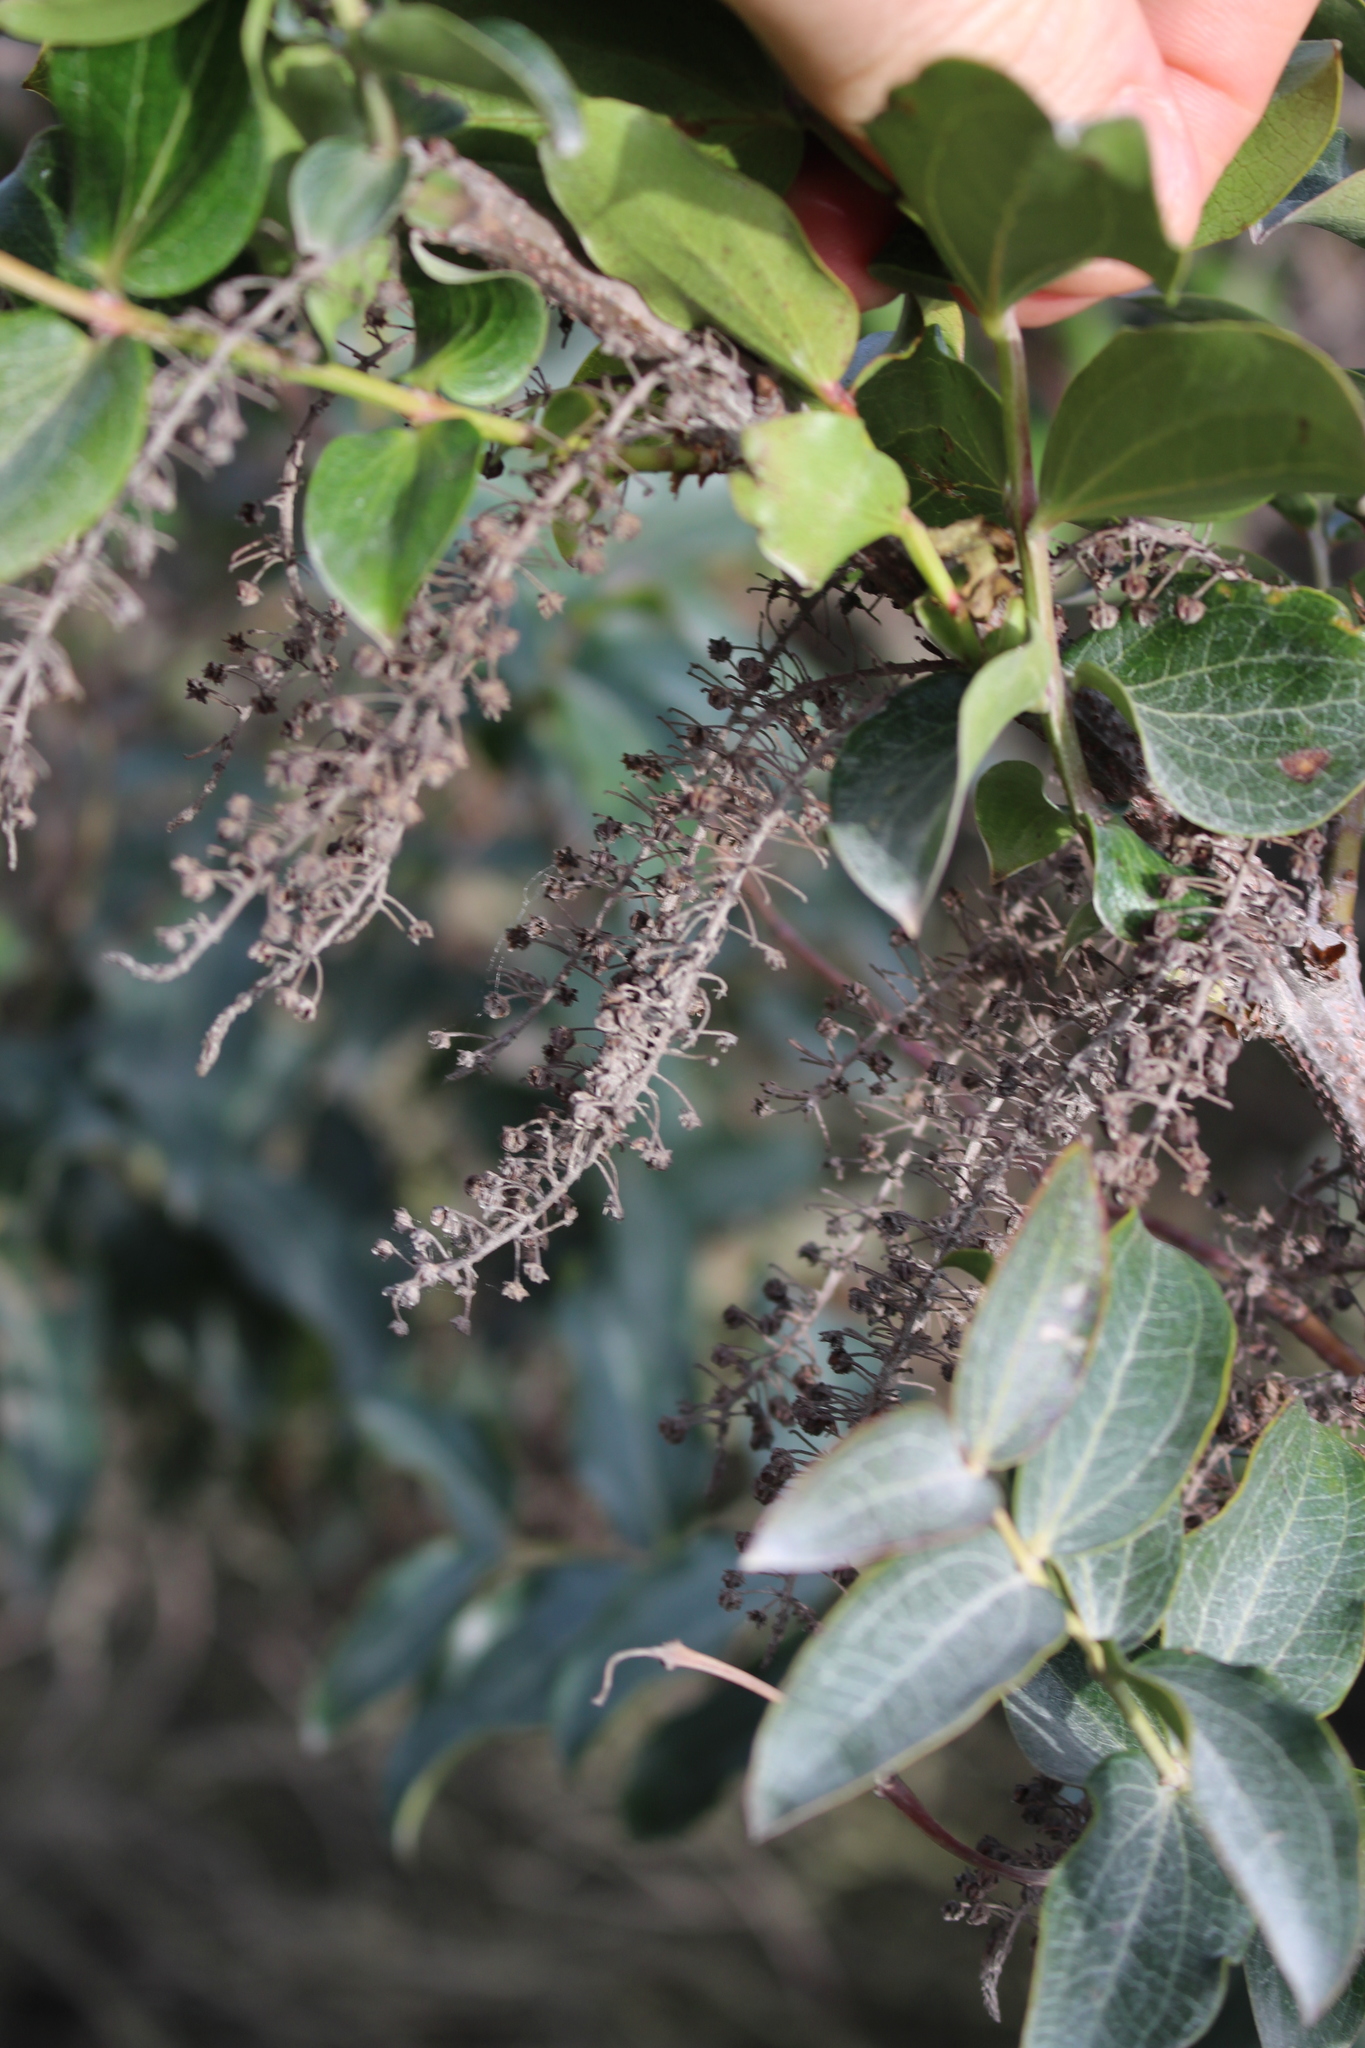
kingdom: Plantae
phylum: Tracheophyta
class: Magnoliopsida
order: Cucurbitales
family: Coriariaceae
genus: Coriaria
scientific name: Coriaria arborea
